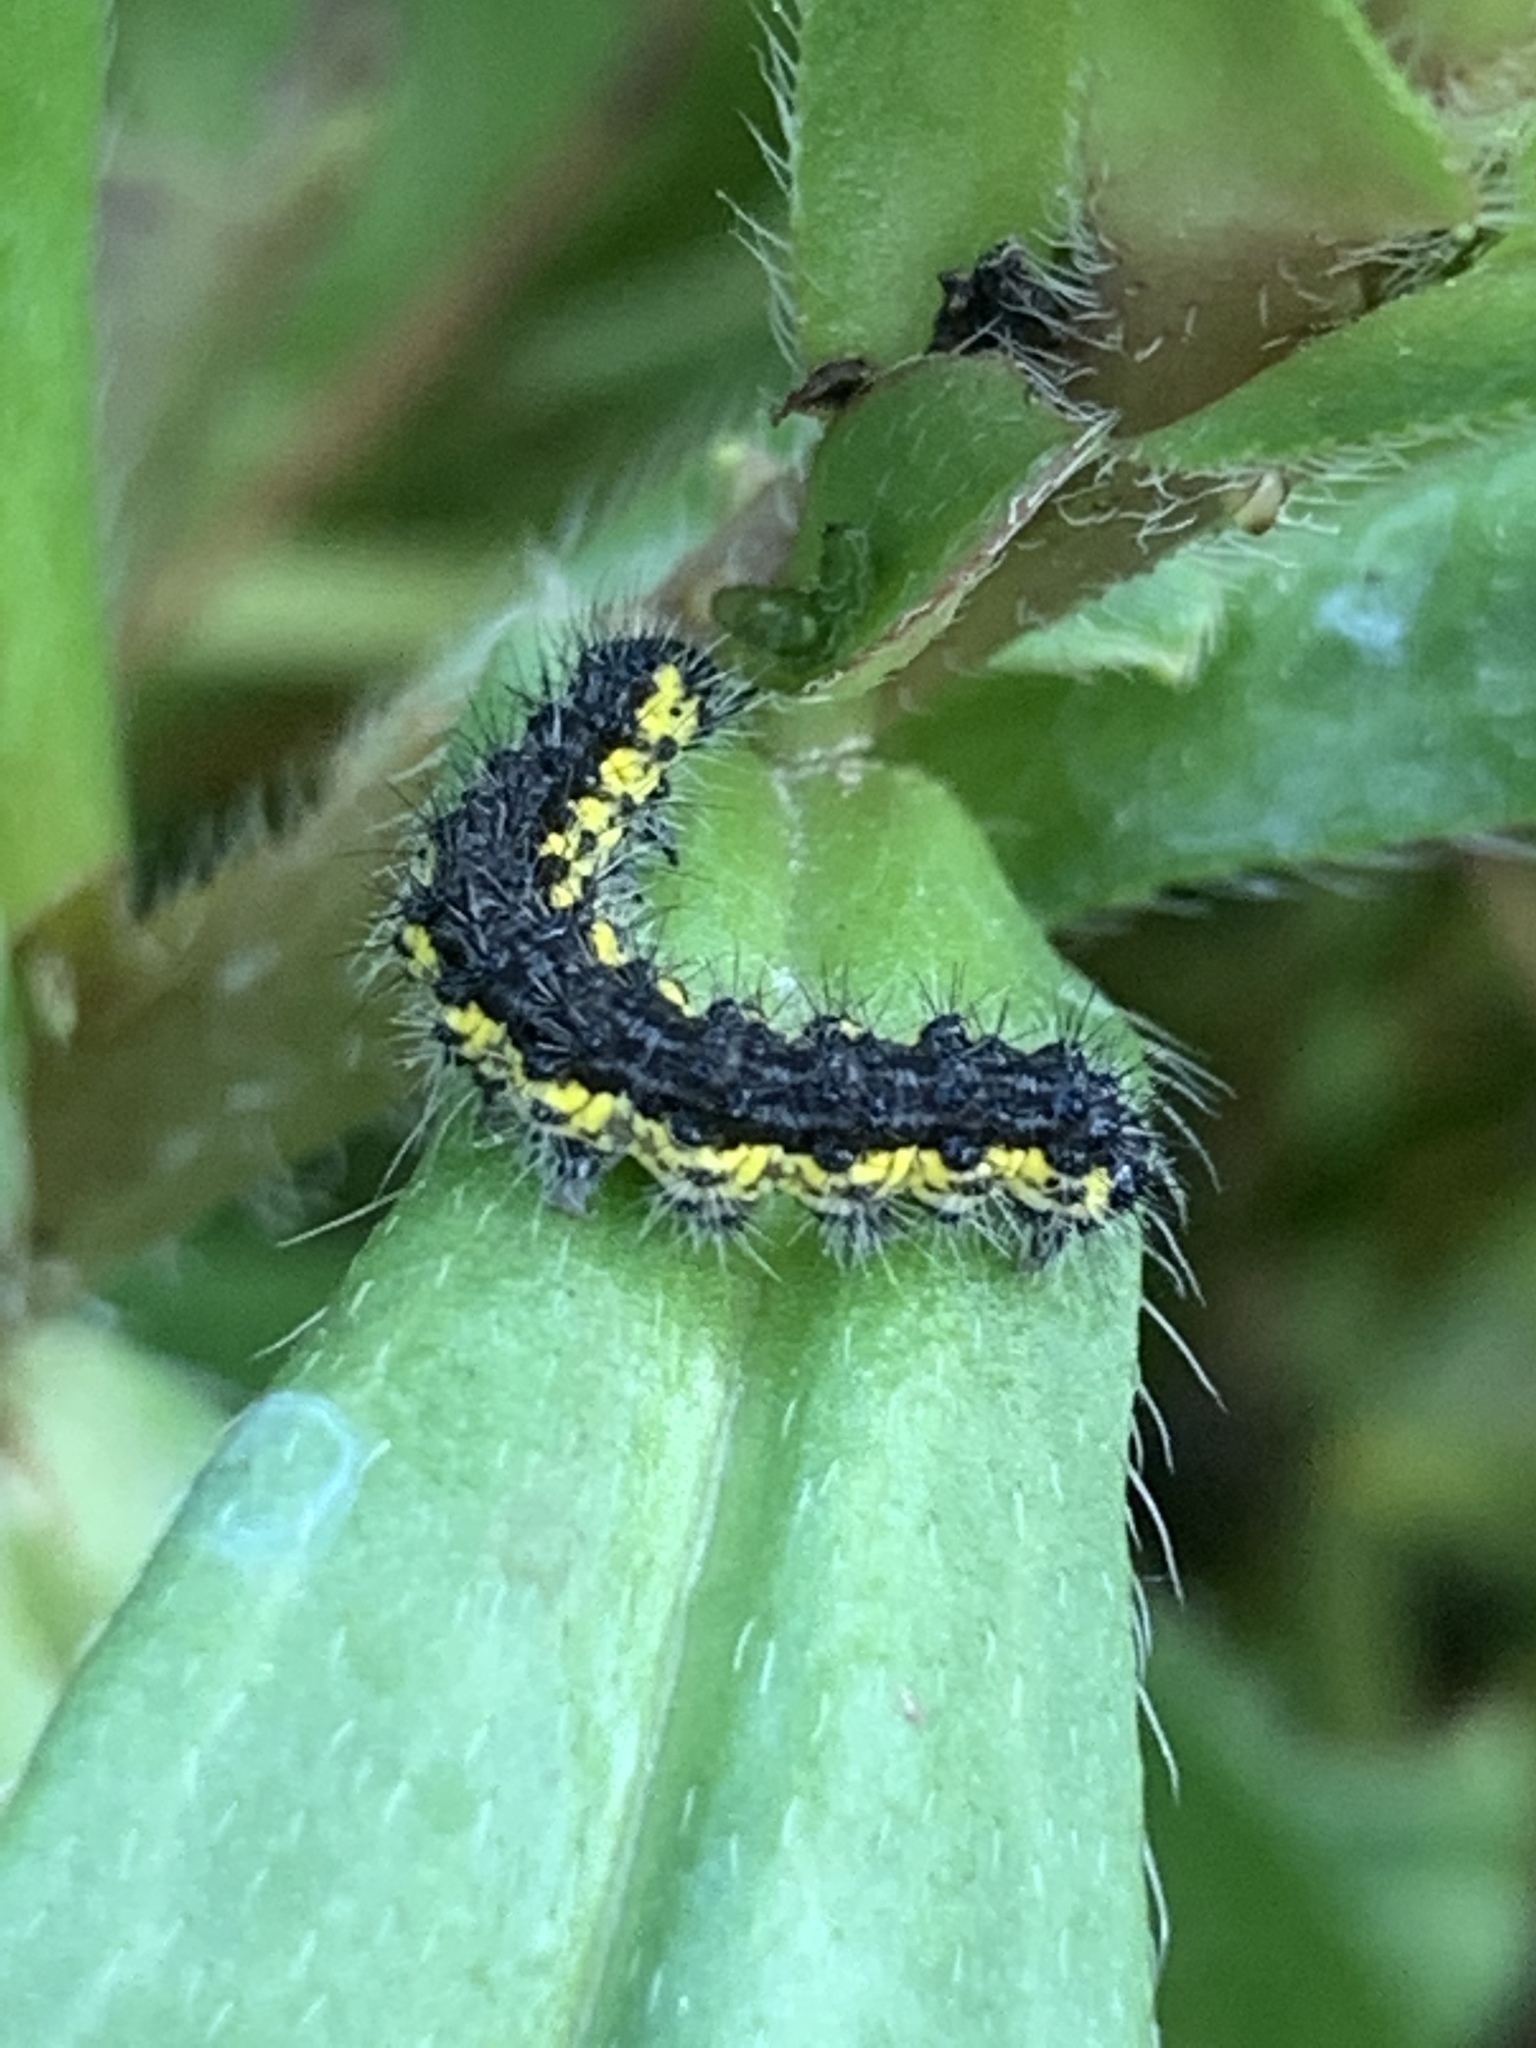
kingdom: Animalia
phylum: Arthropoda
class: Insecta
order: Lepidoptera
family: Erebidae
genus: Haploa
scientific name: Haploa contigua
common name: Neighbor moth
